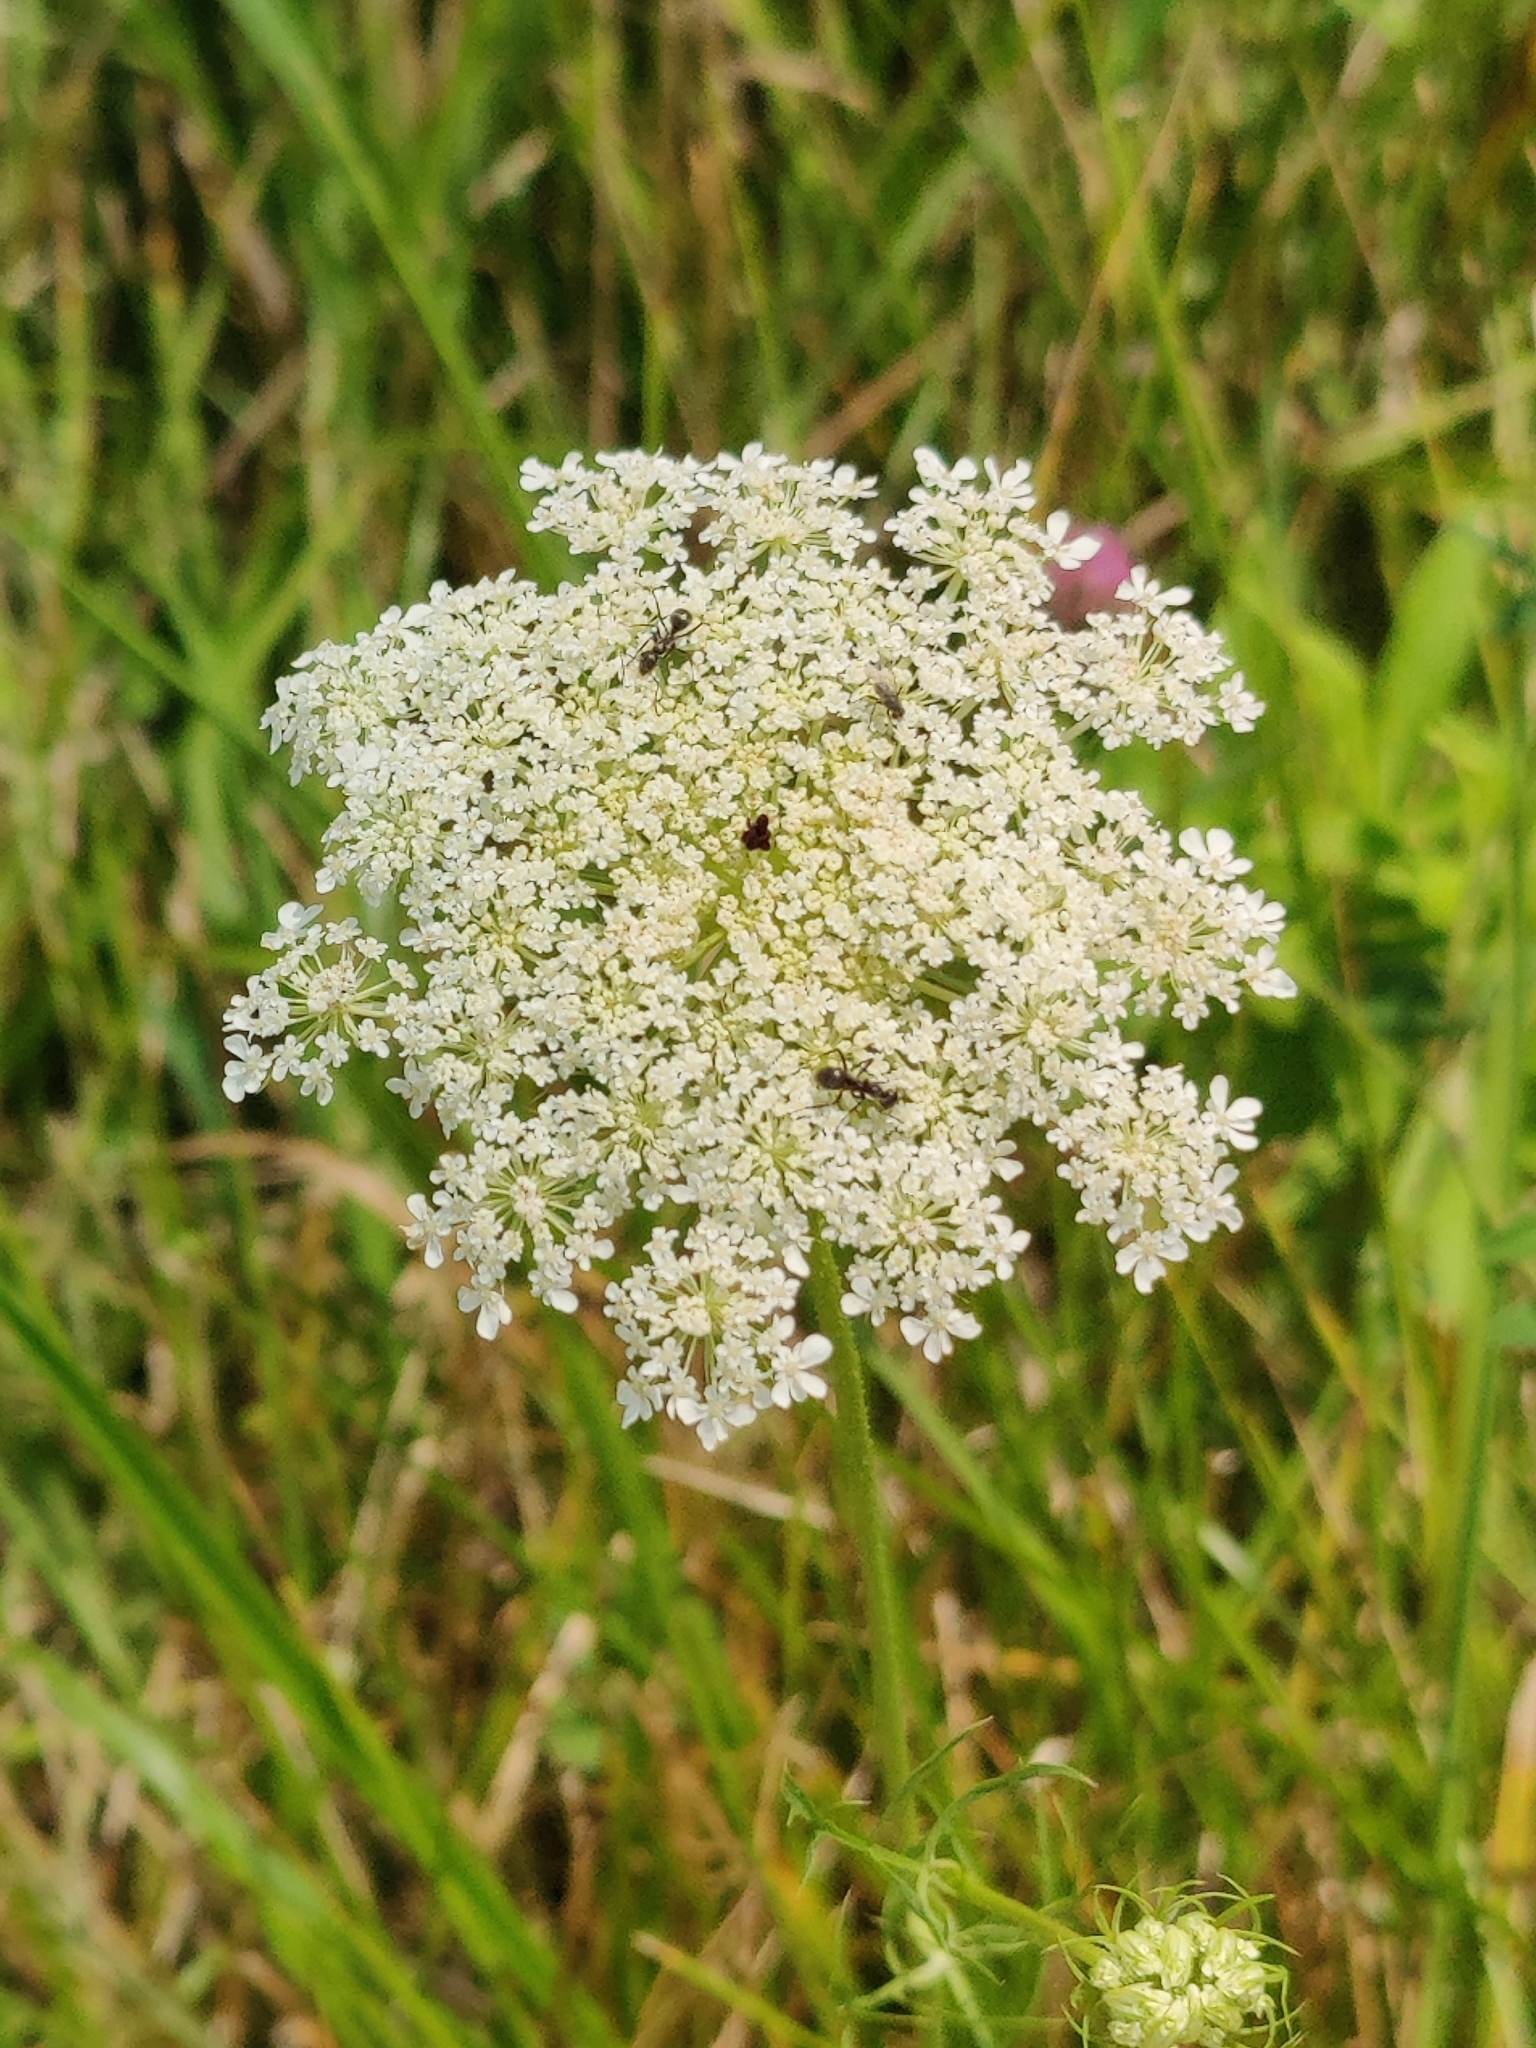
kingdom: Plantae
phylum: Tracheophyta
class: Magnoliopsida
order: Apiales
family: Apiaceae
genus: Daucus
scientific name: Daucus carota
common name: Wild carrot
